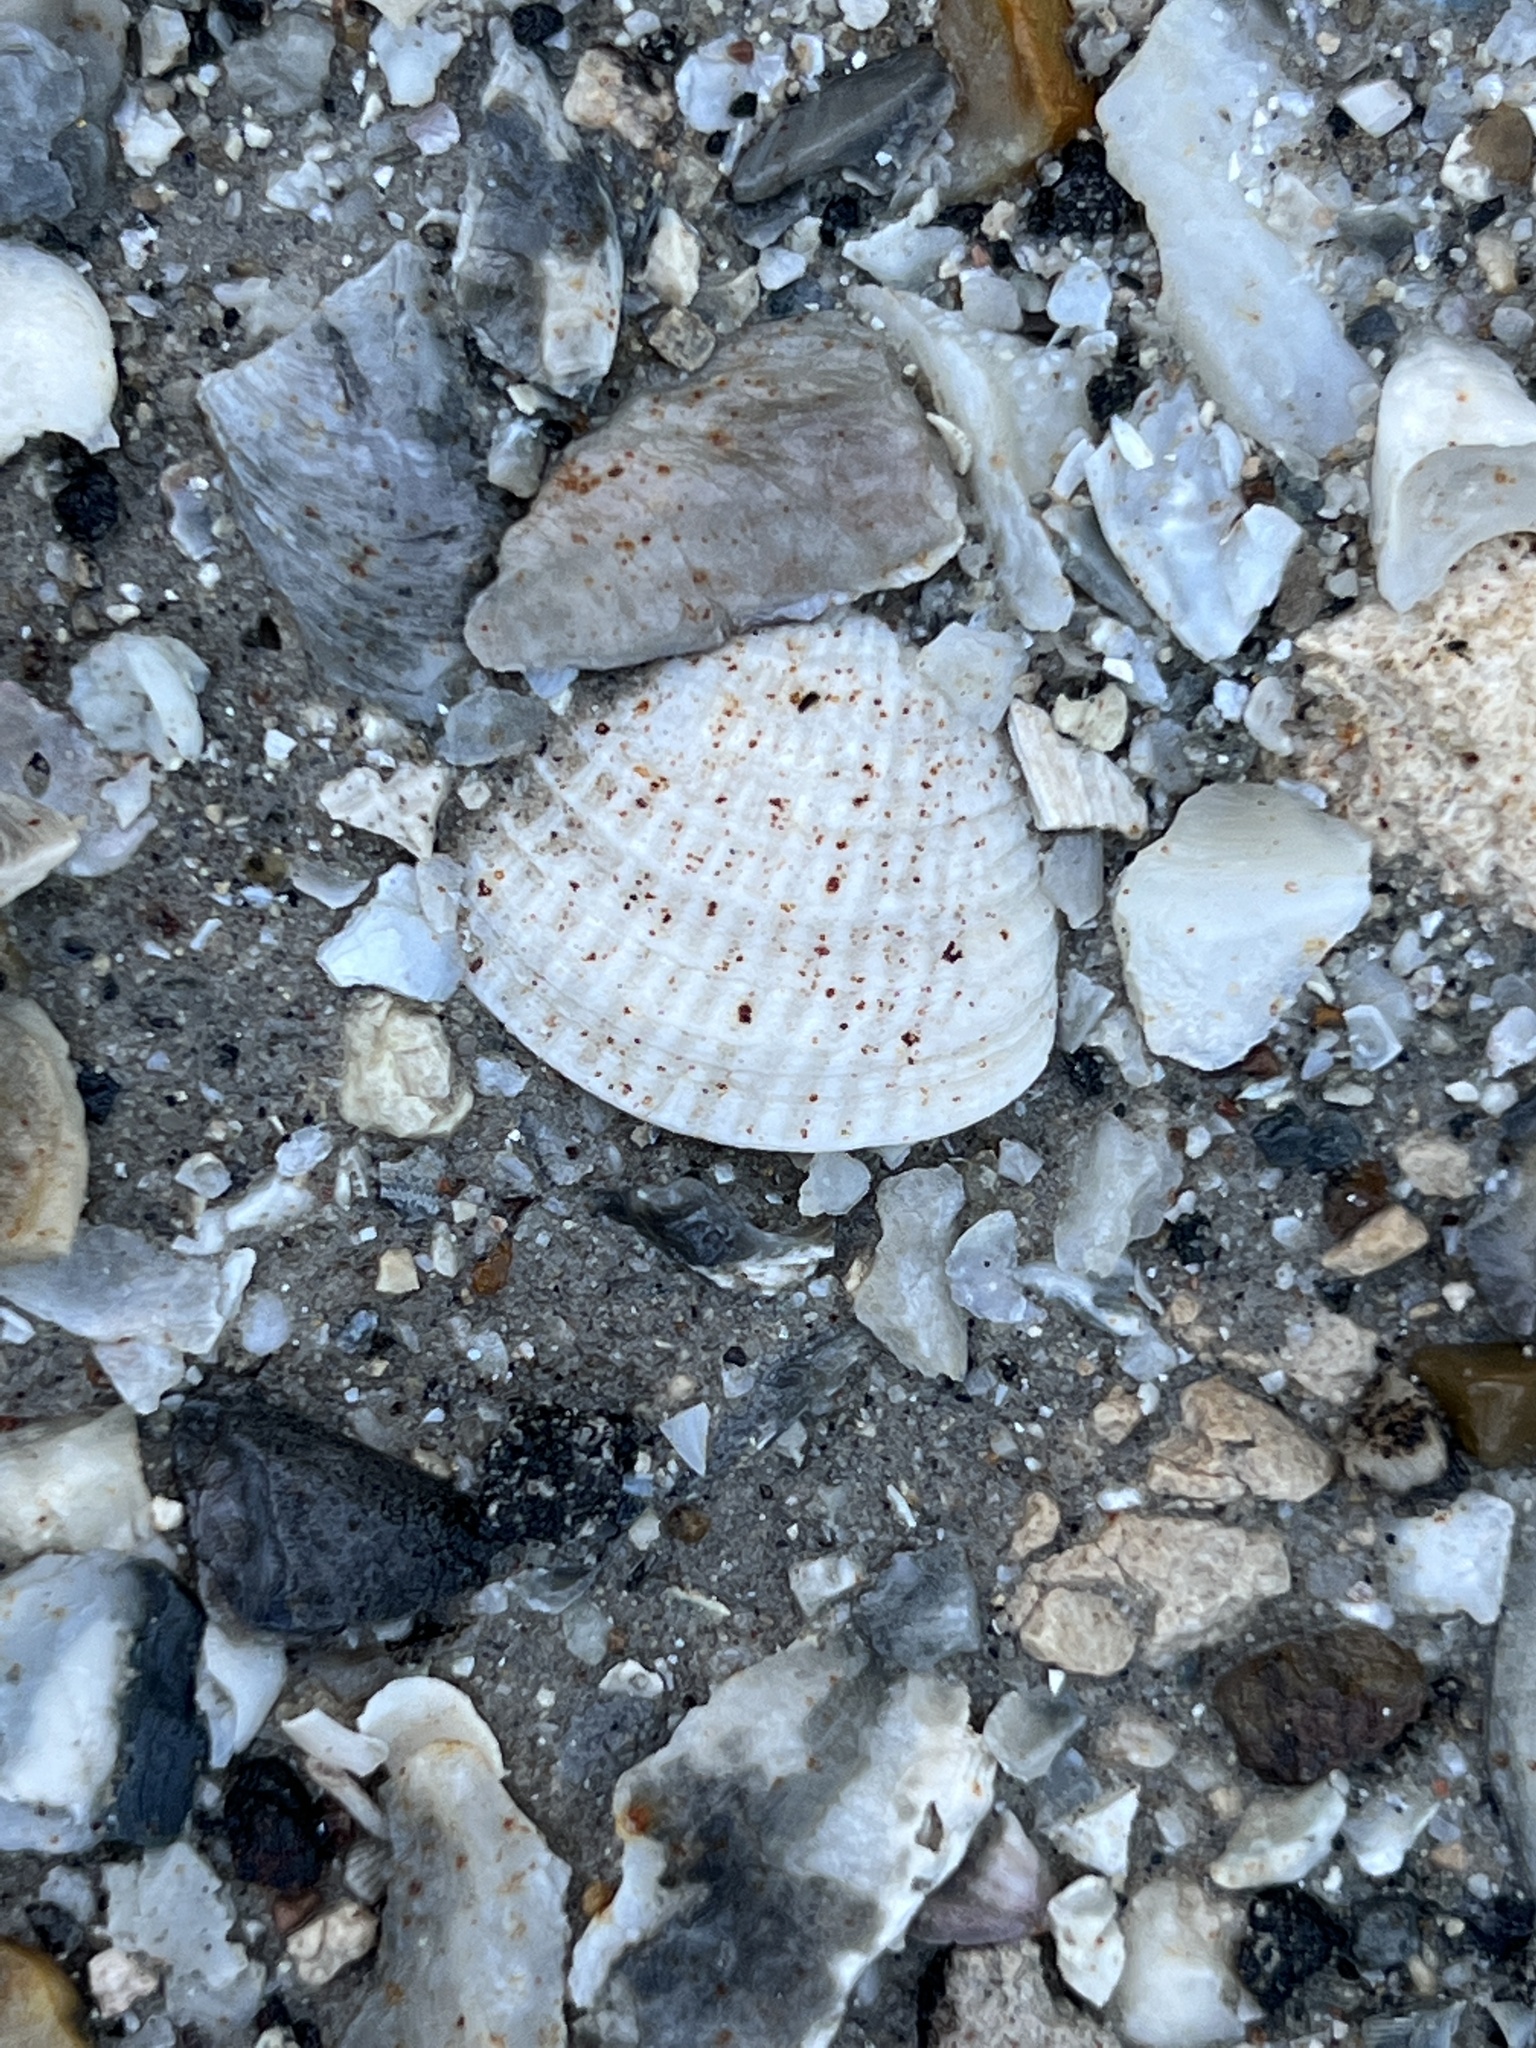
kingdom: Animalia
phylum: Mollusca
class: Bivalvia
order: Venerida
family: Veneridae
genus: Chione
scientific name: Chione elevata
